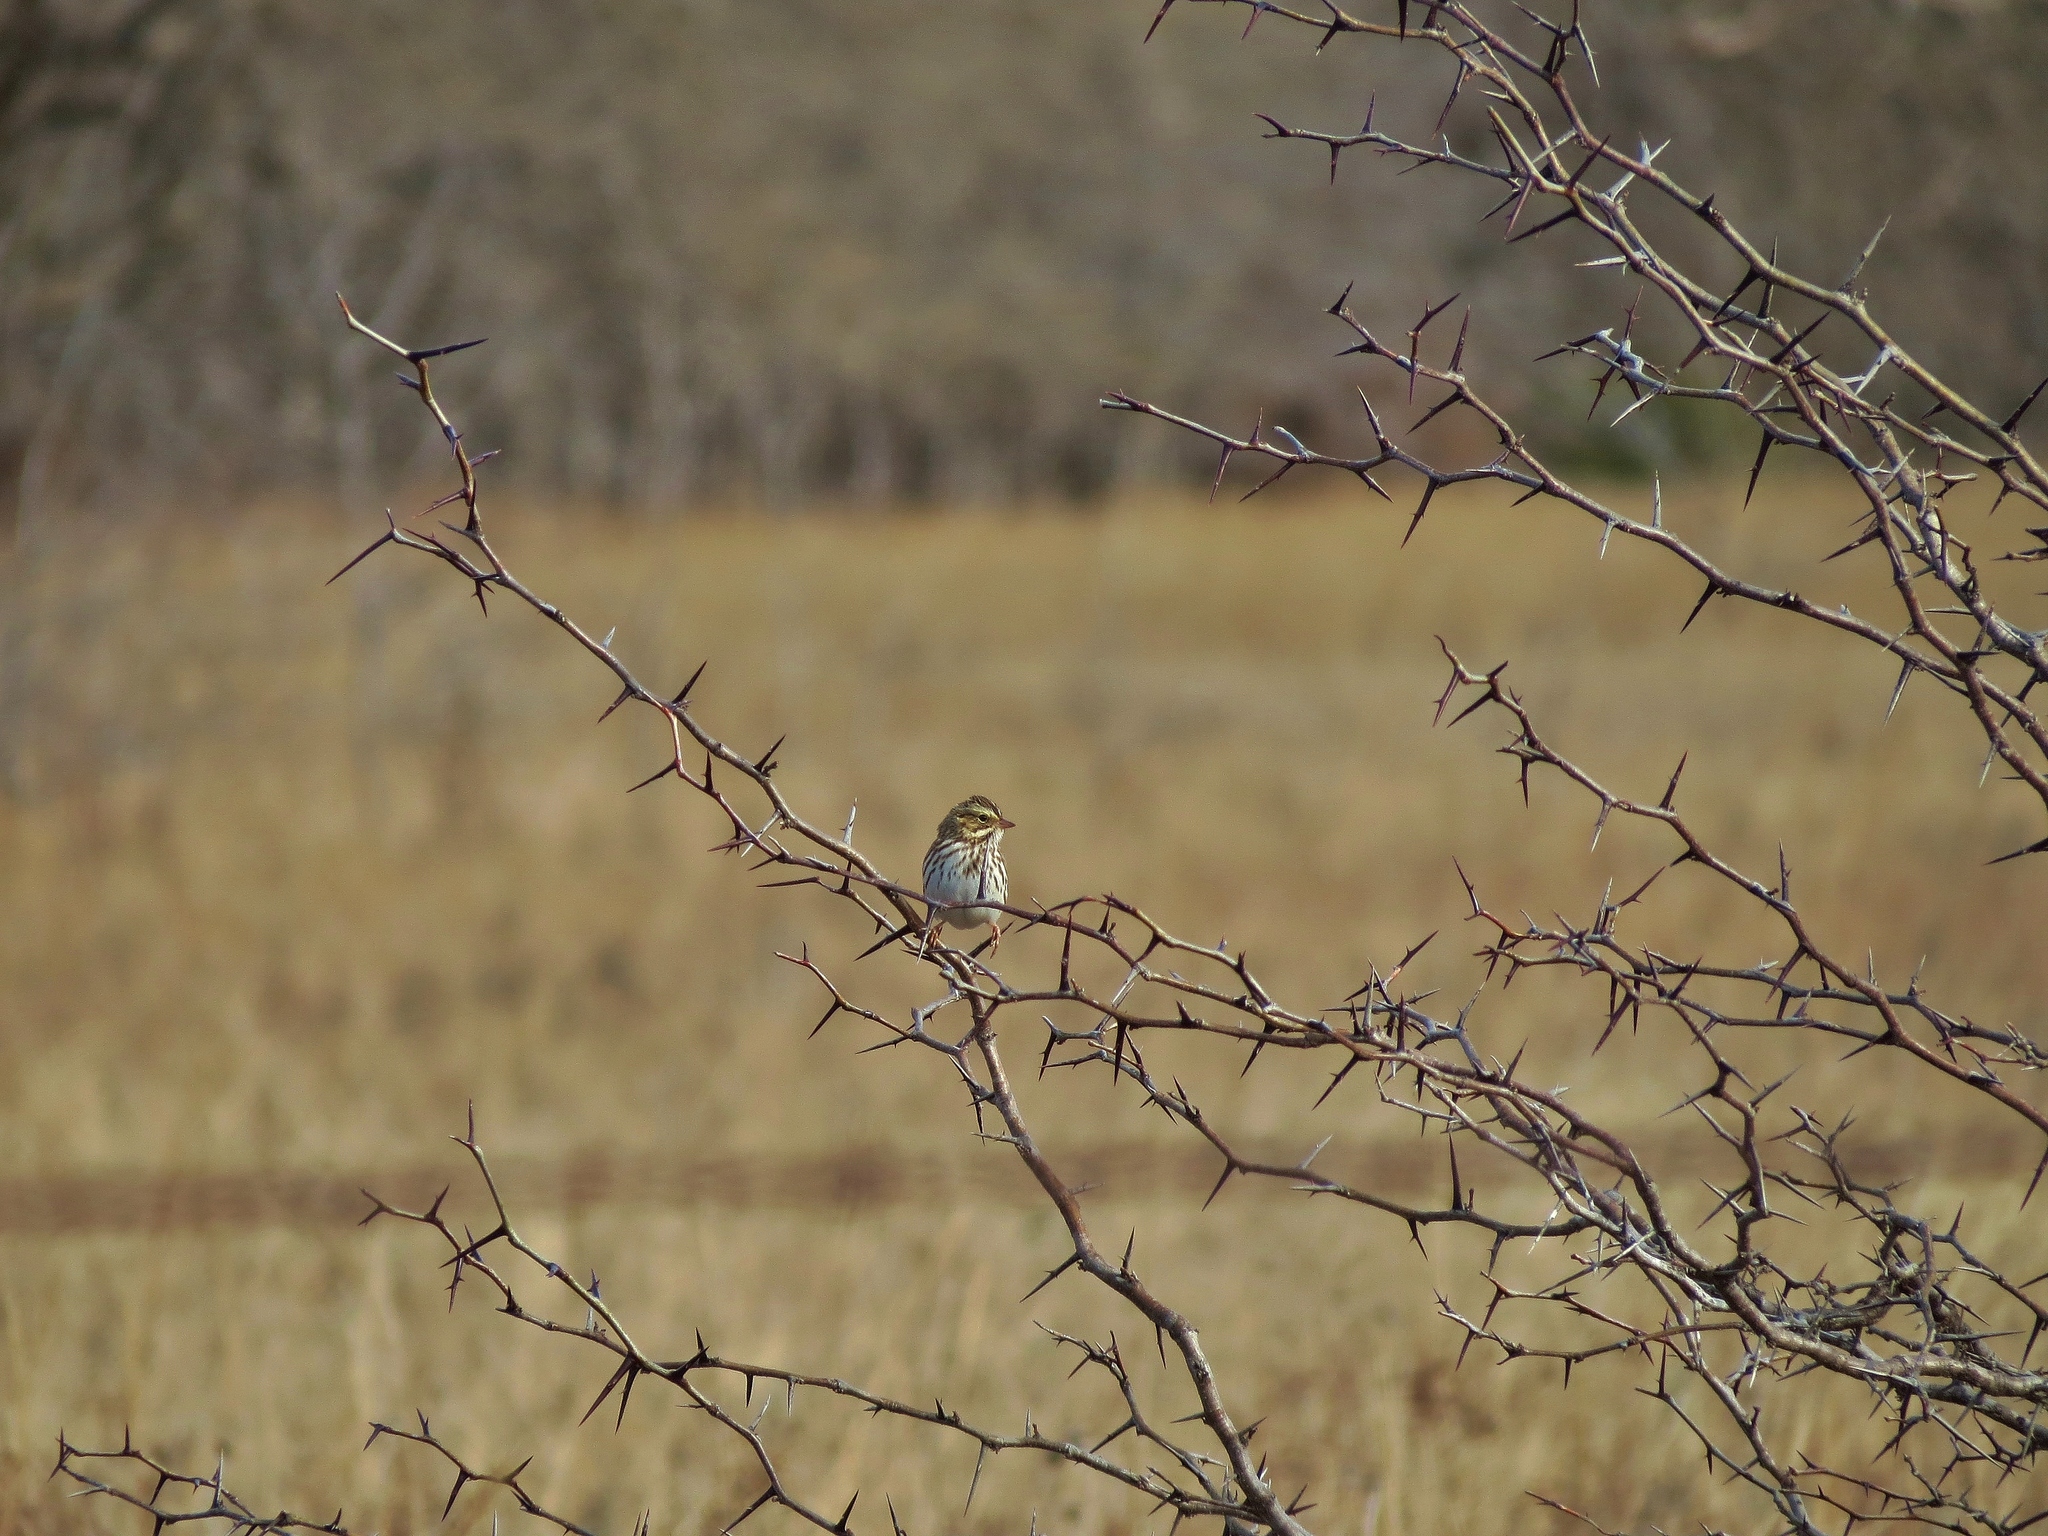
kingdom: Animalia
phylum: Chordata
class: Aves
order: Passeriformes
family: Passerellidae
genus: Passerculus
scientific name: Passerculus sandwichensis
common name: Savannah sparrow
